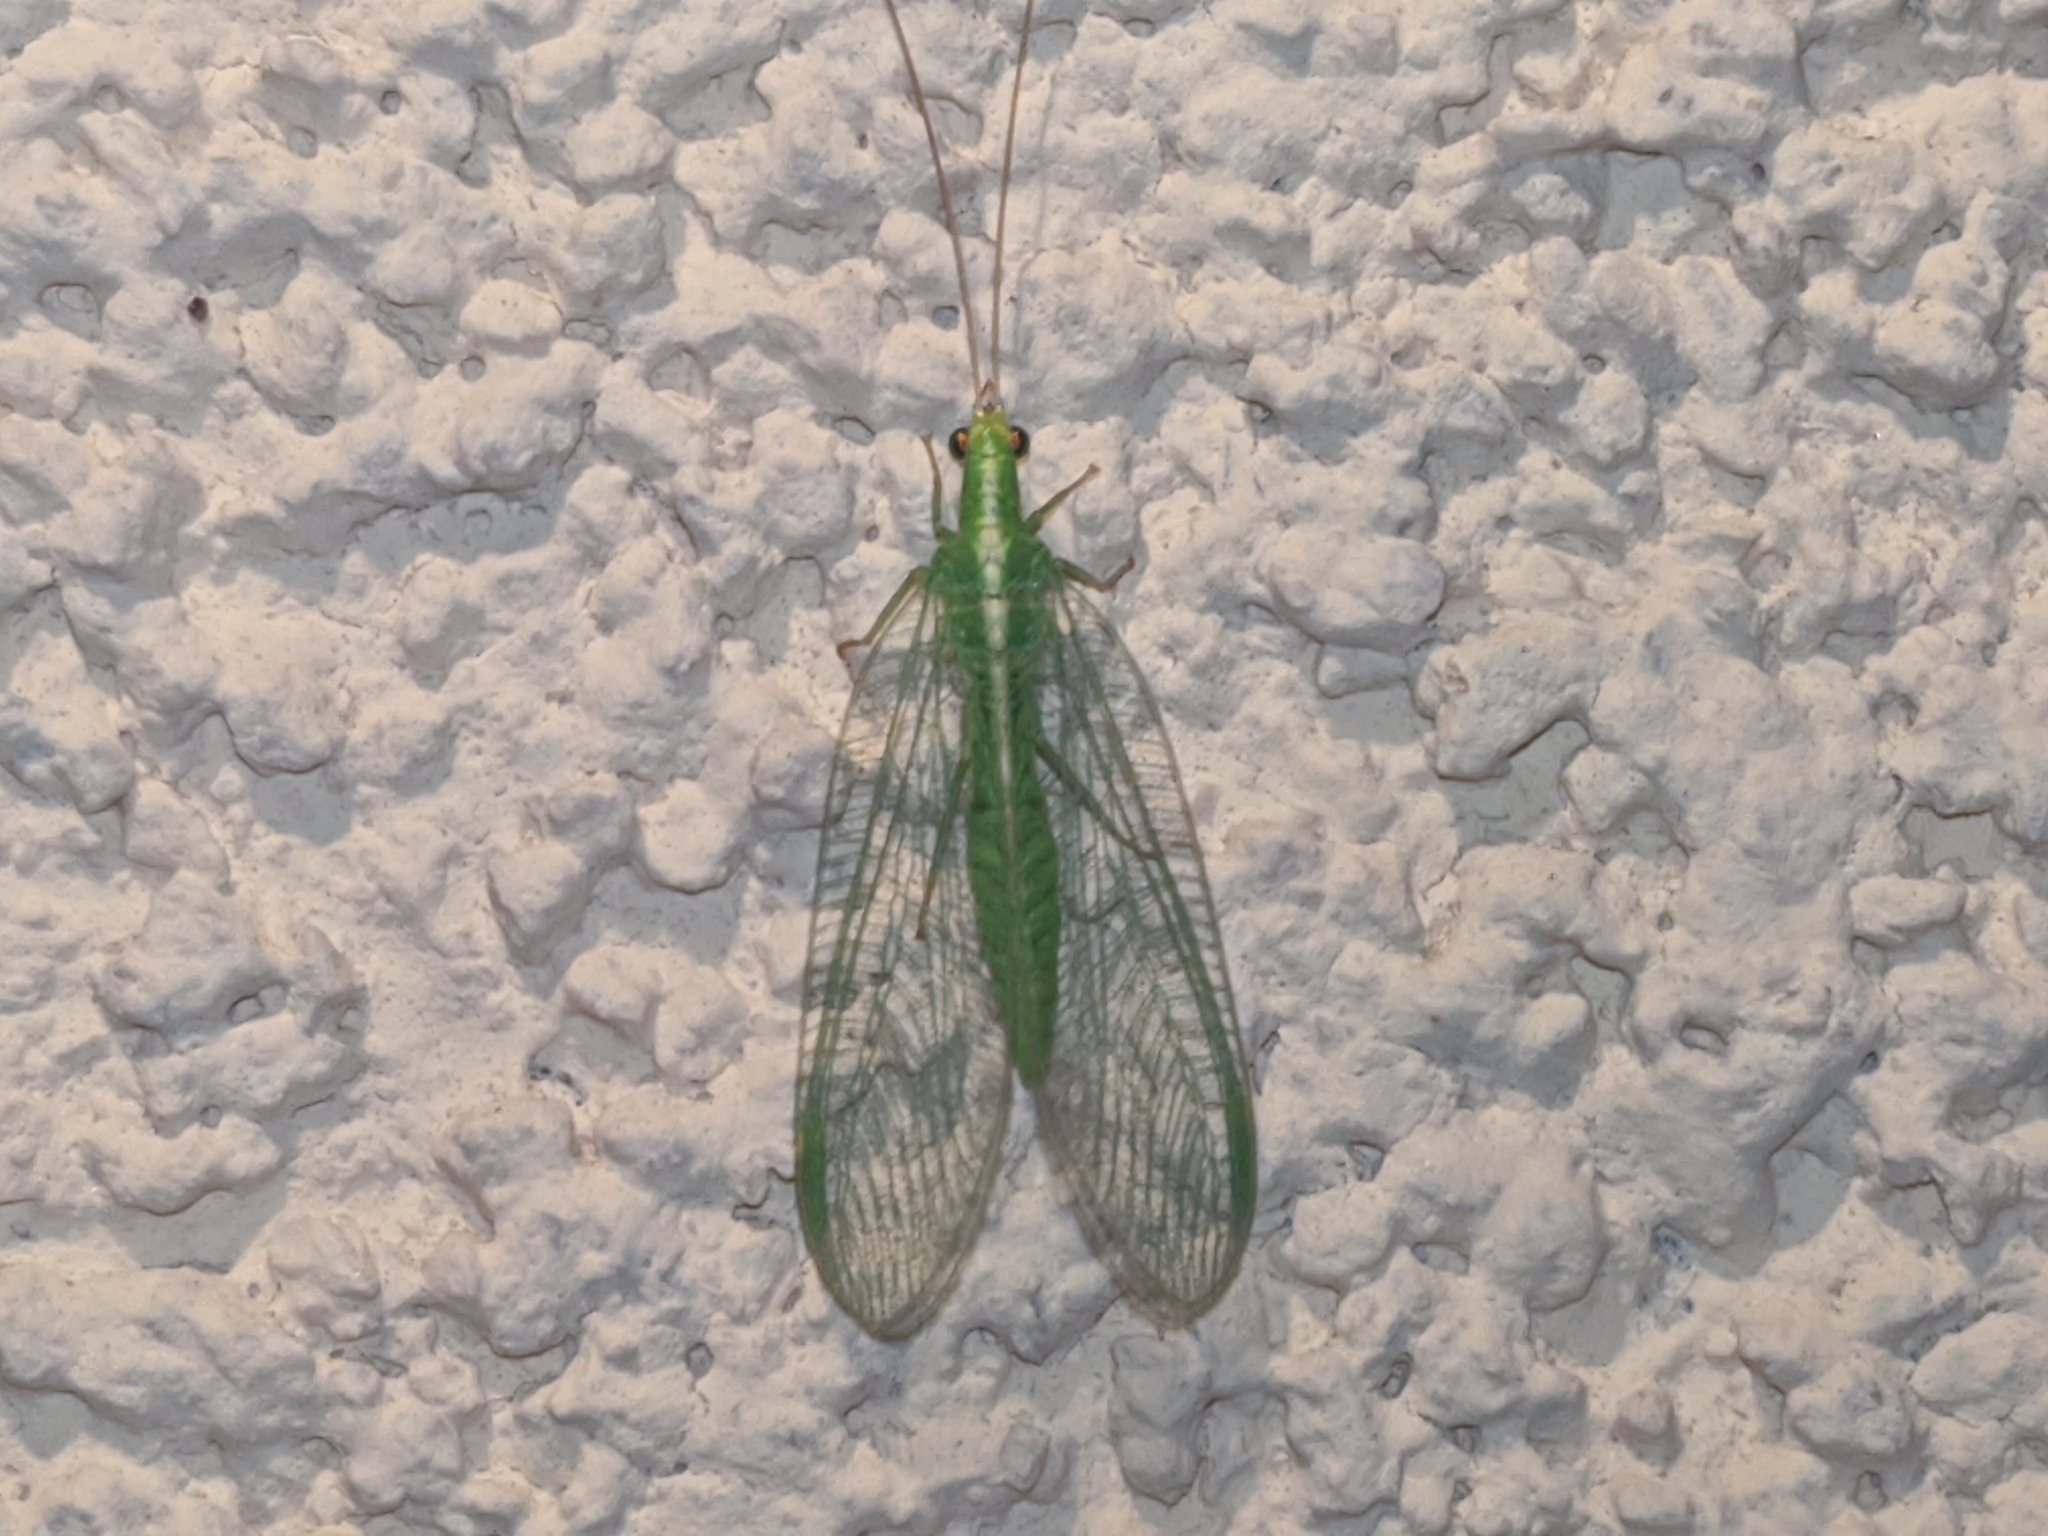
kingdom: Animalia
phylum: Arthropoda
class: Insecta
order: Neuroptera
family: Chrysopidae
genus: Chrysoperla
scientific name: Chrysoperla
